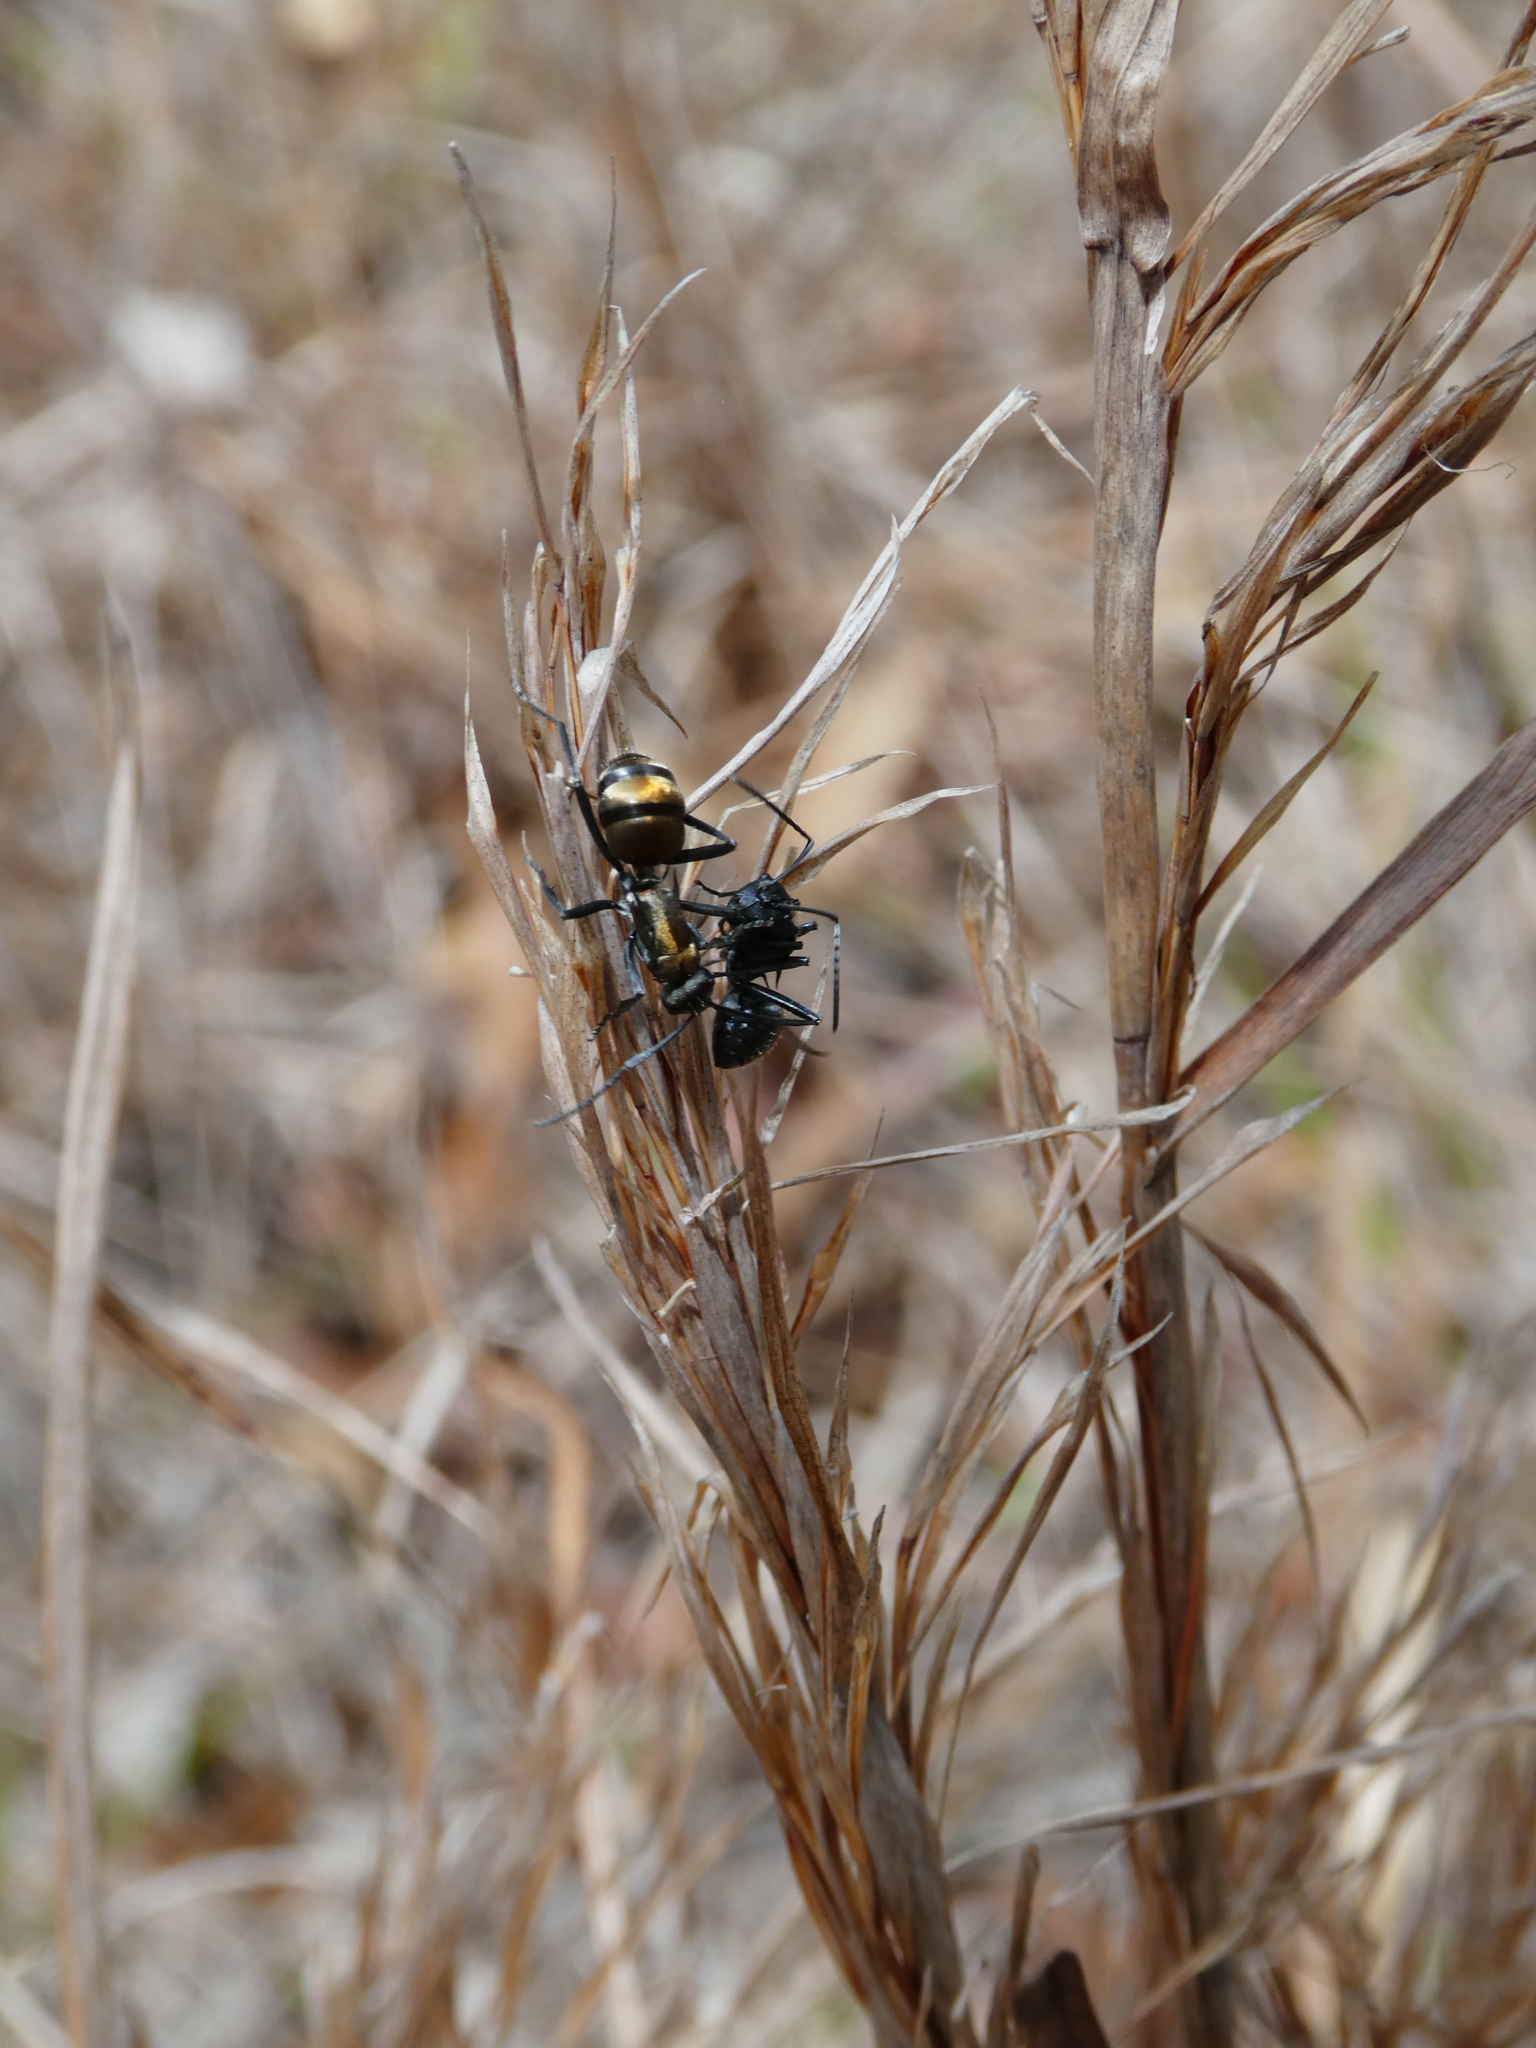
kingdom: Animalia
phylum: Arthropoda
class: Insecta
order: Hymenoptera
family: Formicidae
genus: Polyrhachis
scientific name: Polyrhachis ammon
